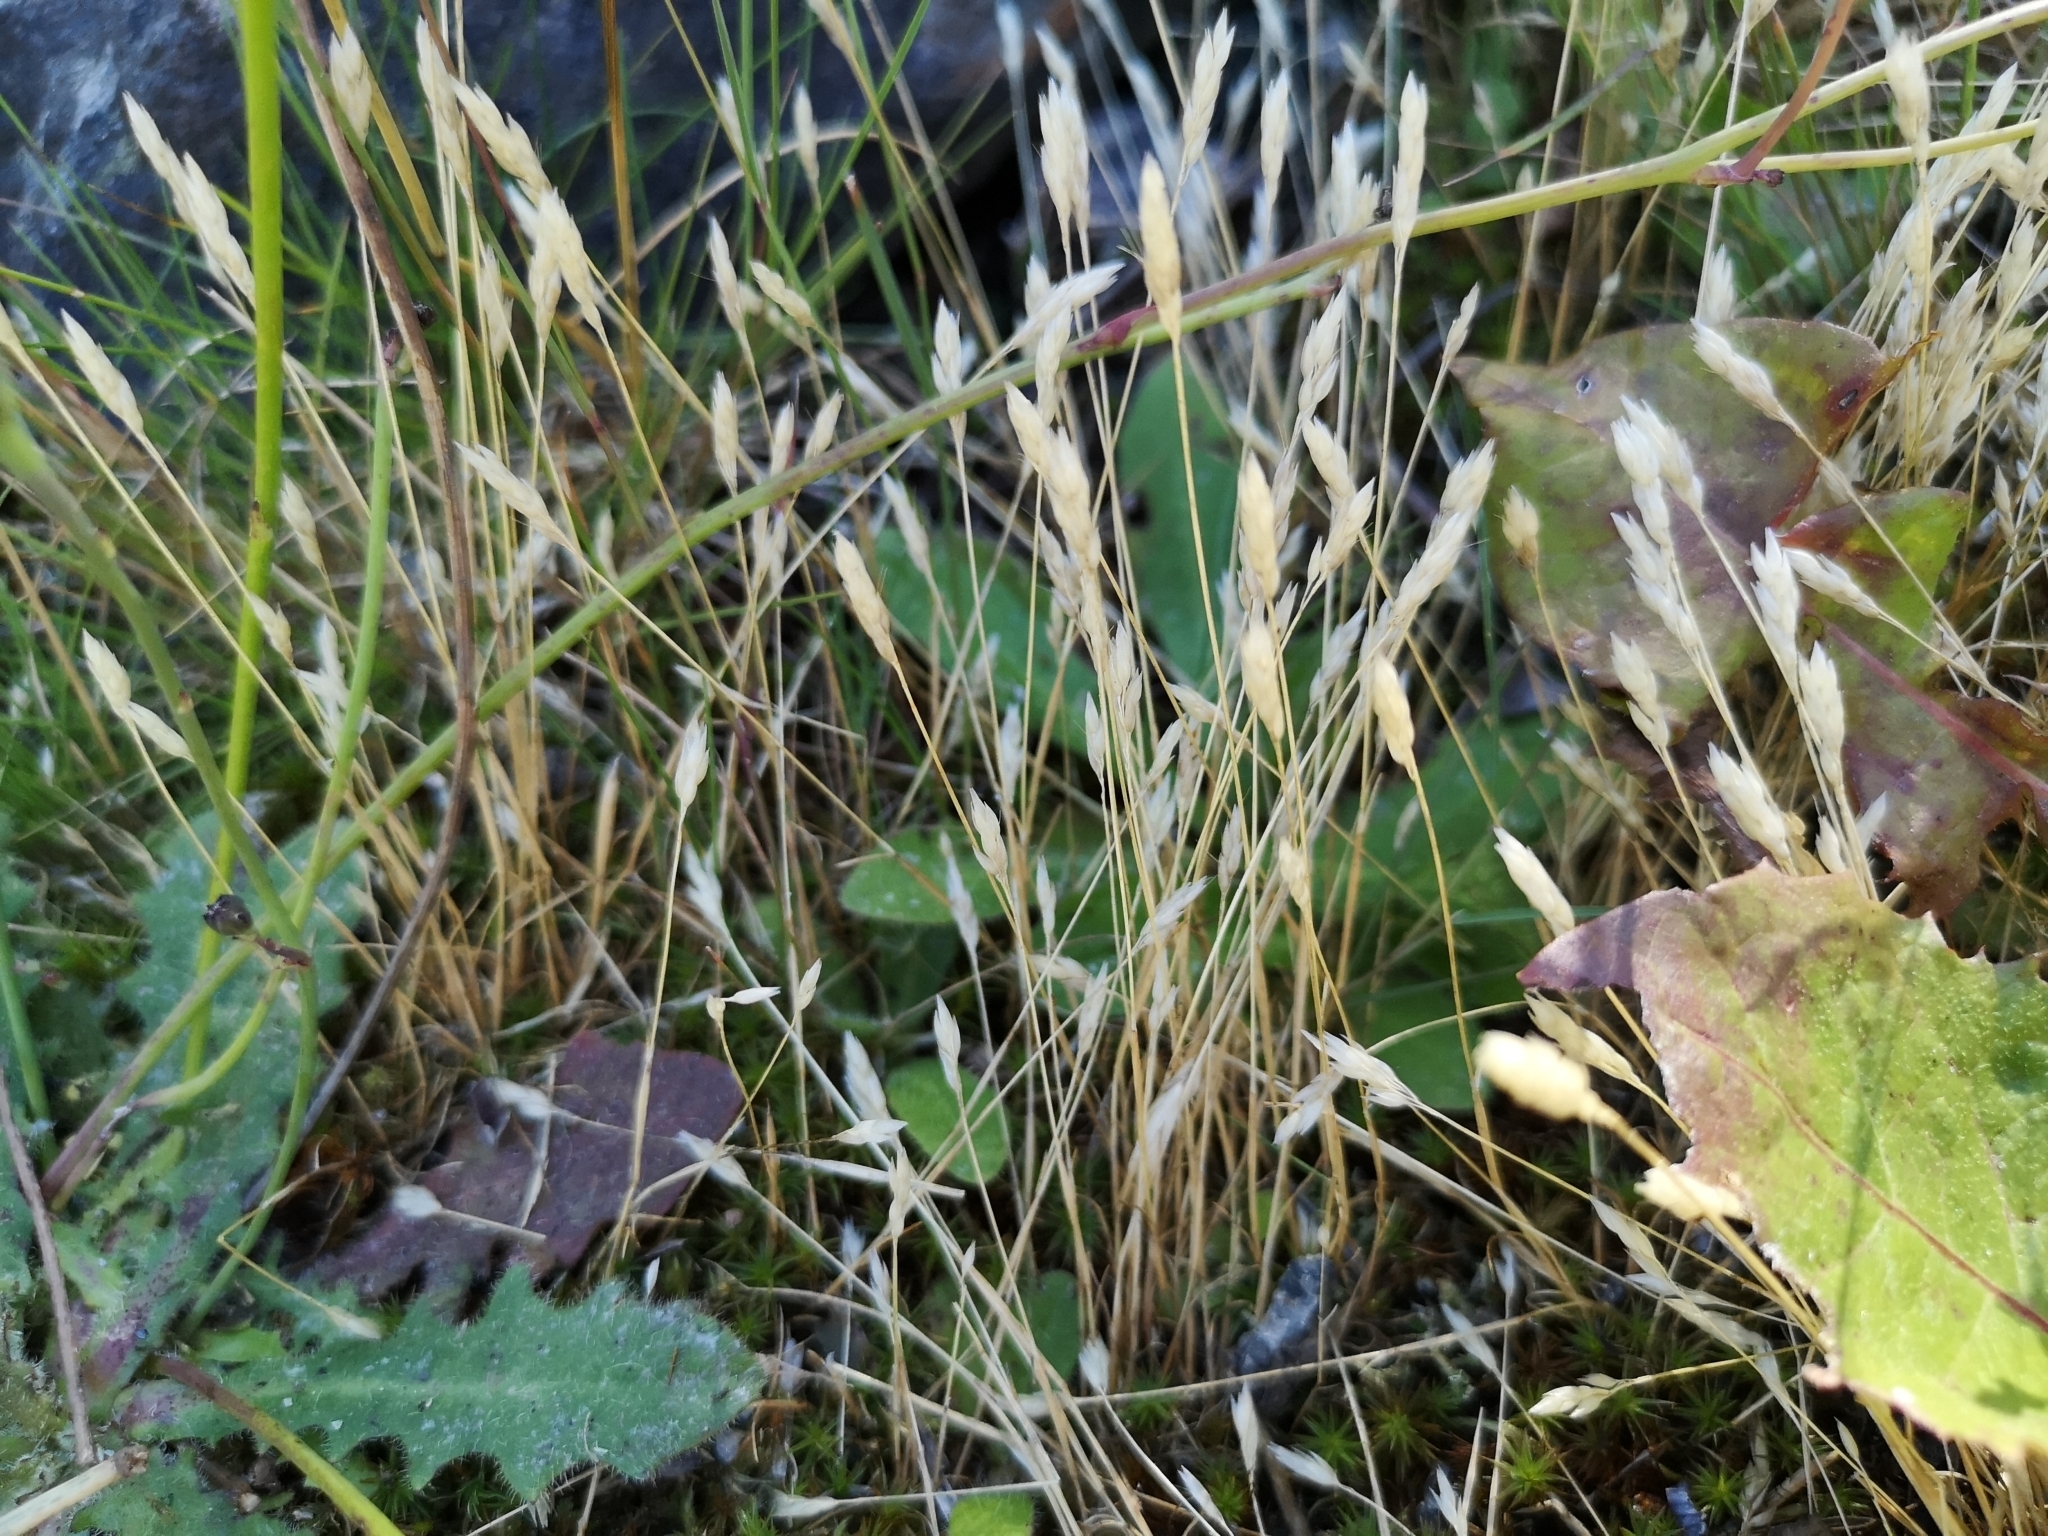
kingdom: Plantae
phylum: Tracheophyta
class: Liliopsida
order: Poales
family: Poaceae
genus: Aira
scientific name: Aira praecox
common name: Early hair-grass
